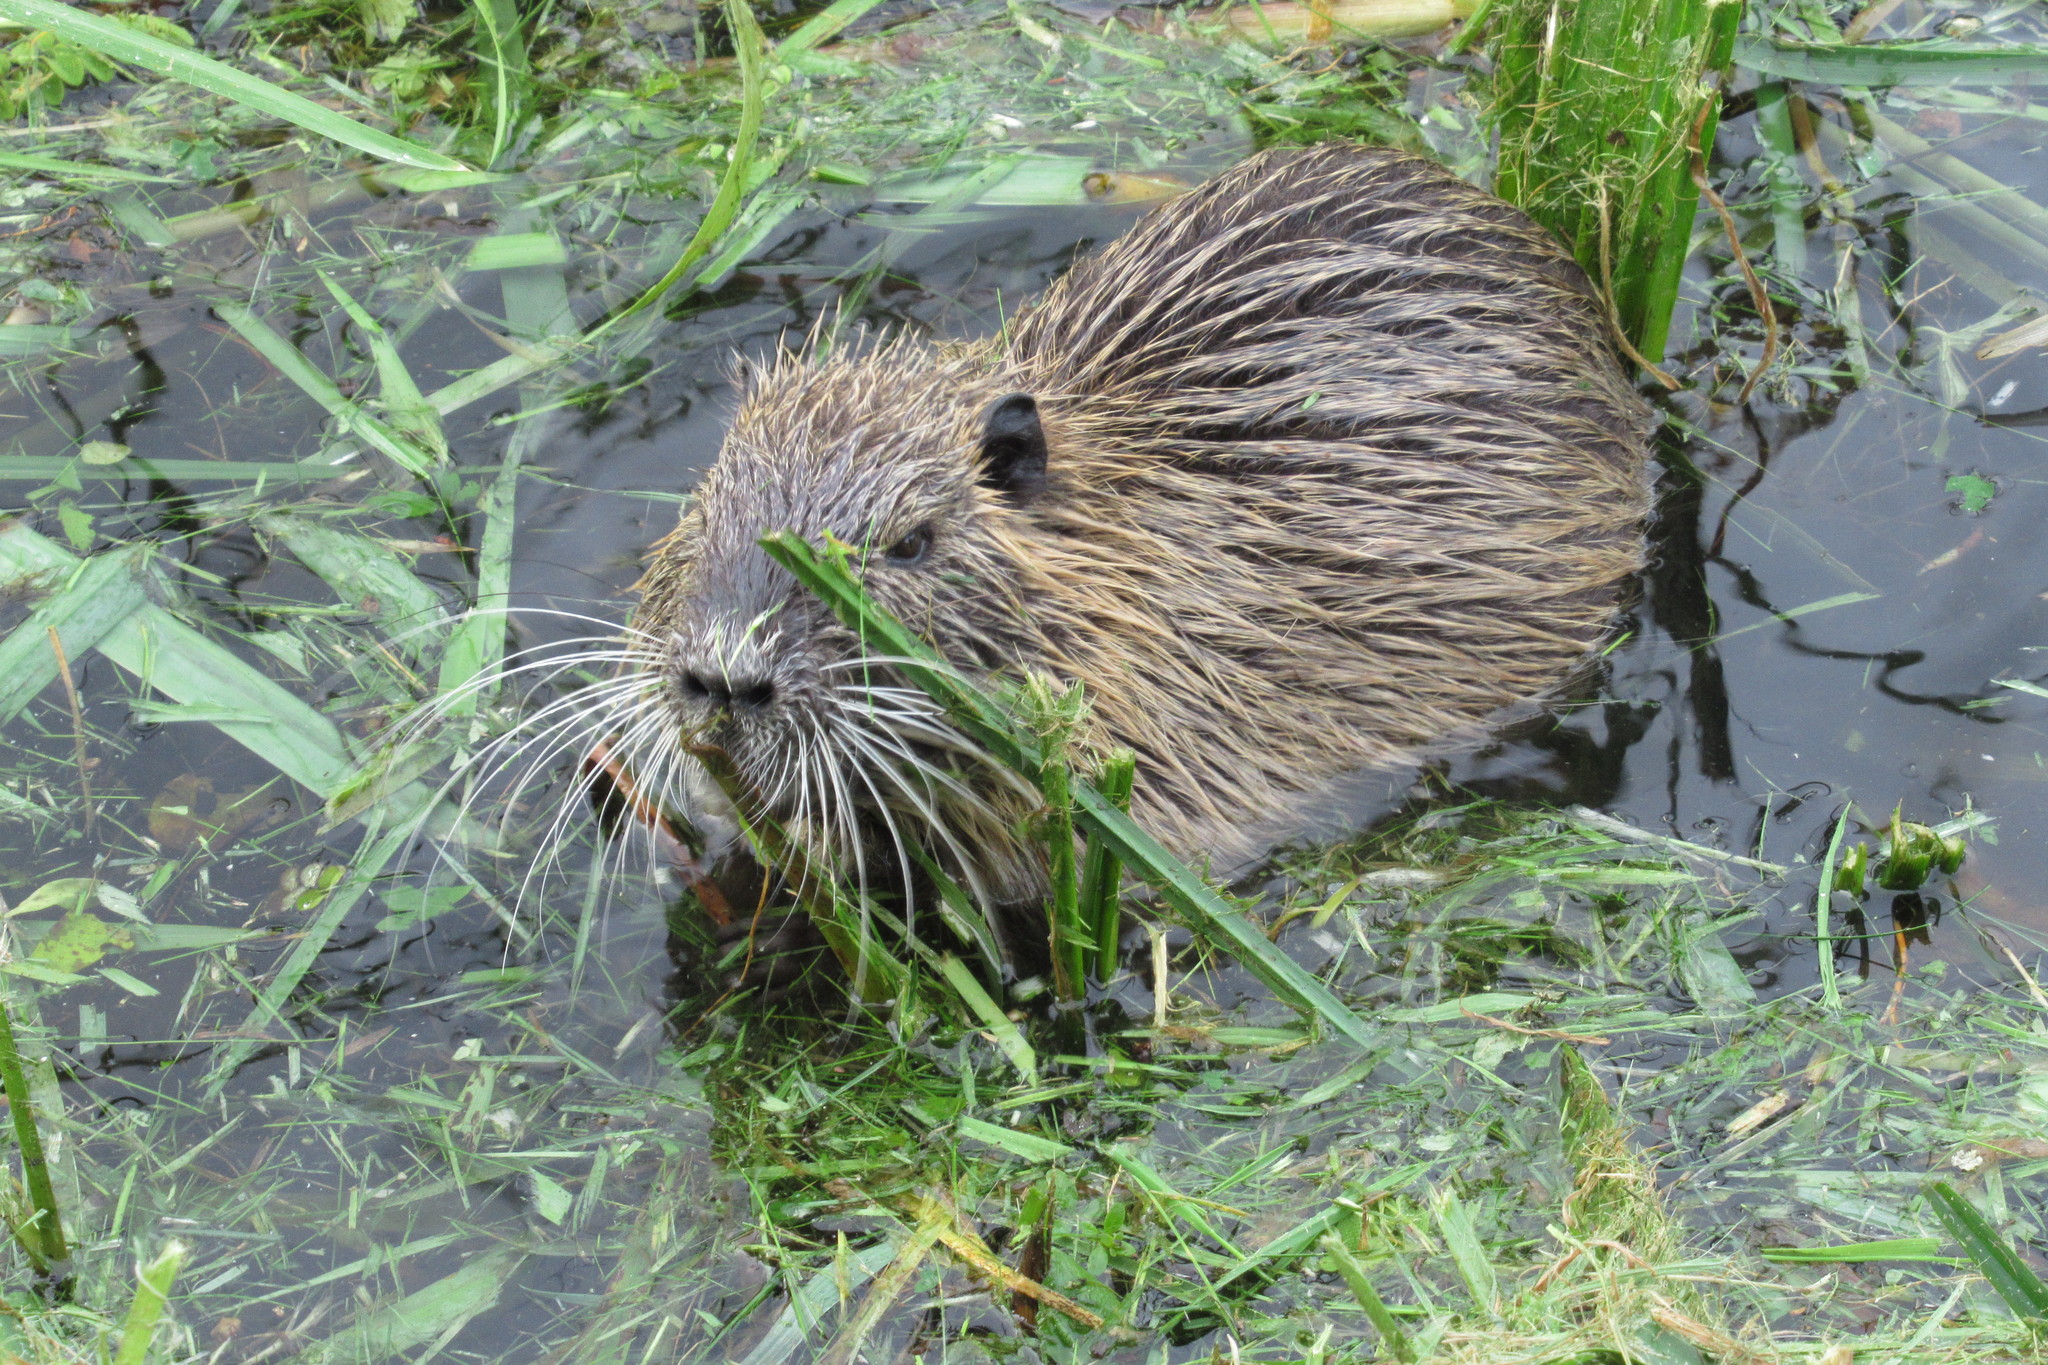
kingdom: Animalia
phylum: Chordata
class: Mammalia
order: Rodentia
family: Myocastoridae
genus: Myocastor
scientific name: Myocastor coypus
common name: Coypu
